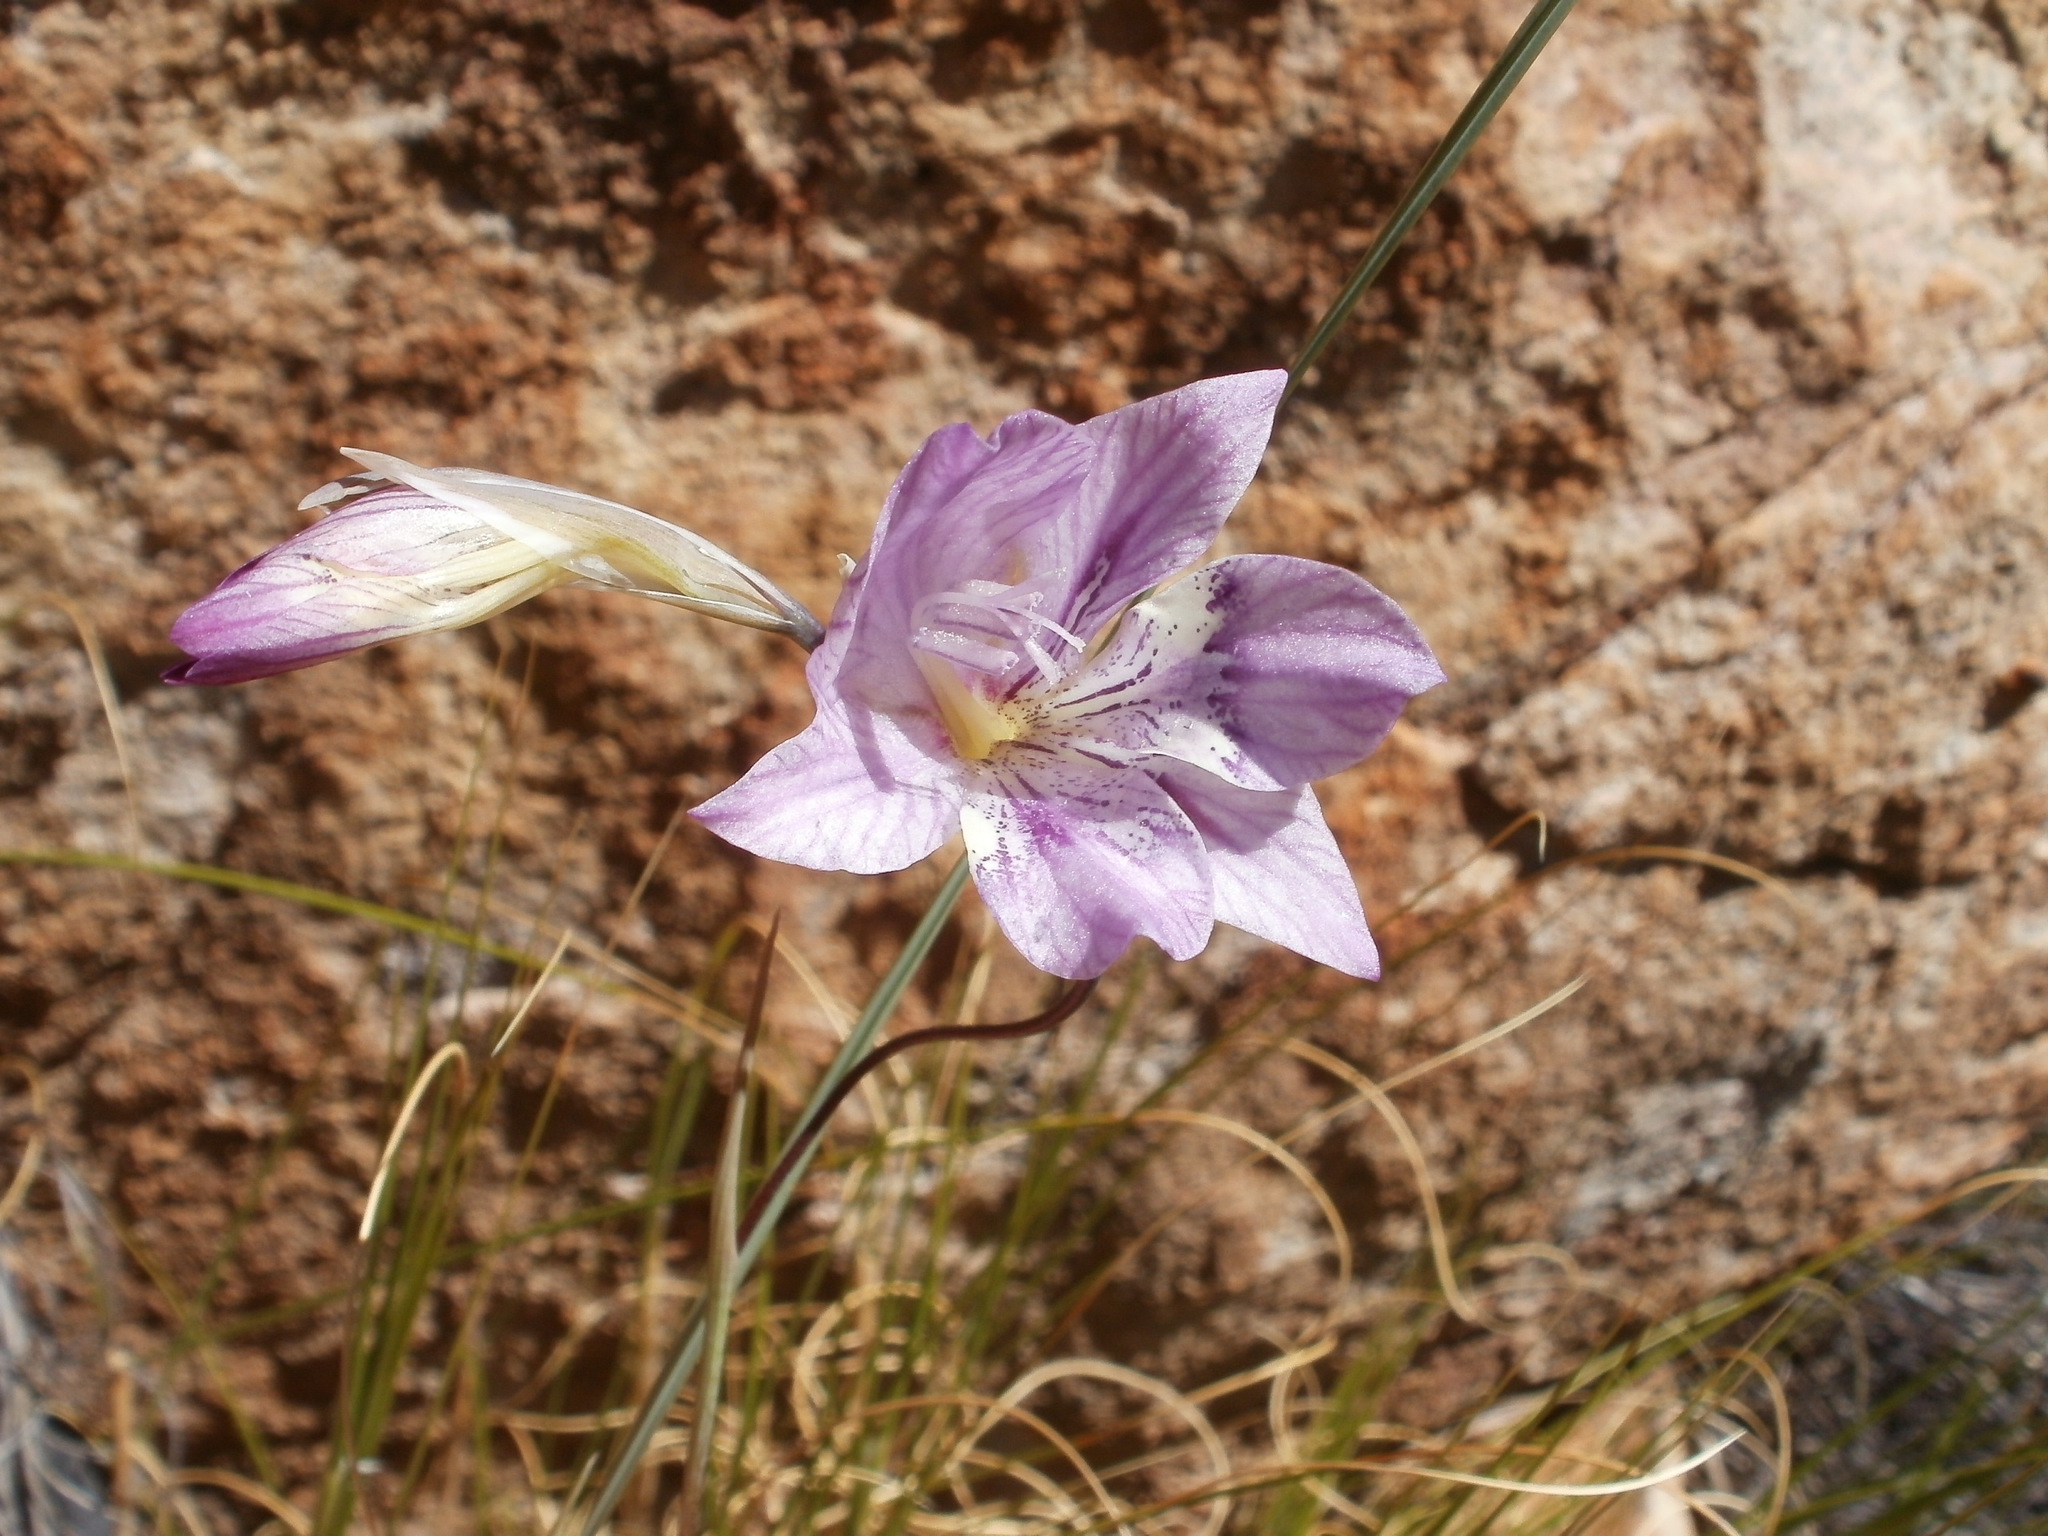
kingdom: Plantae
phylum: Tracheophyta
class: Liliopsida
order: Asparagales
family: Iridaceae
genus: Gladiolus
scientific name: Gladiolus taubertianus
